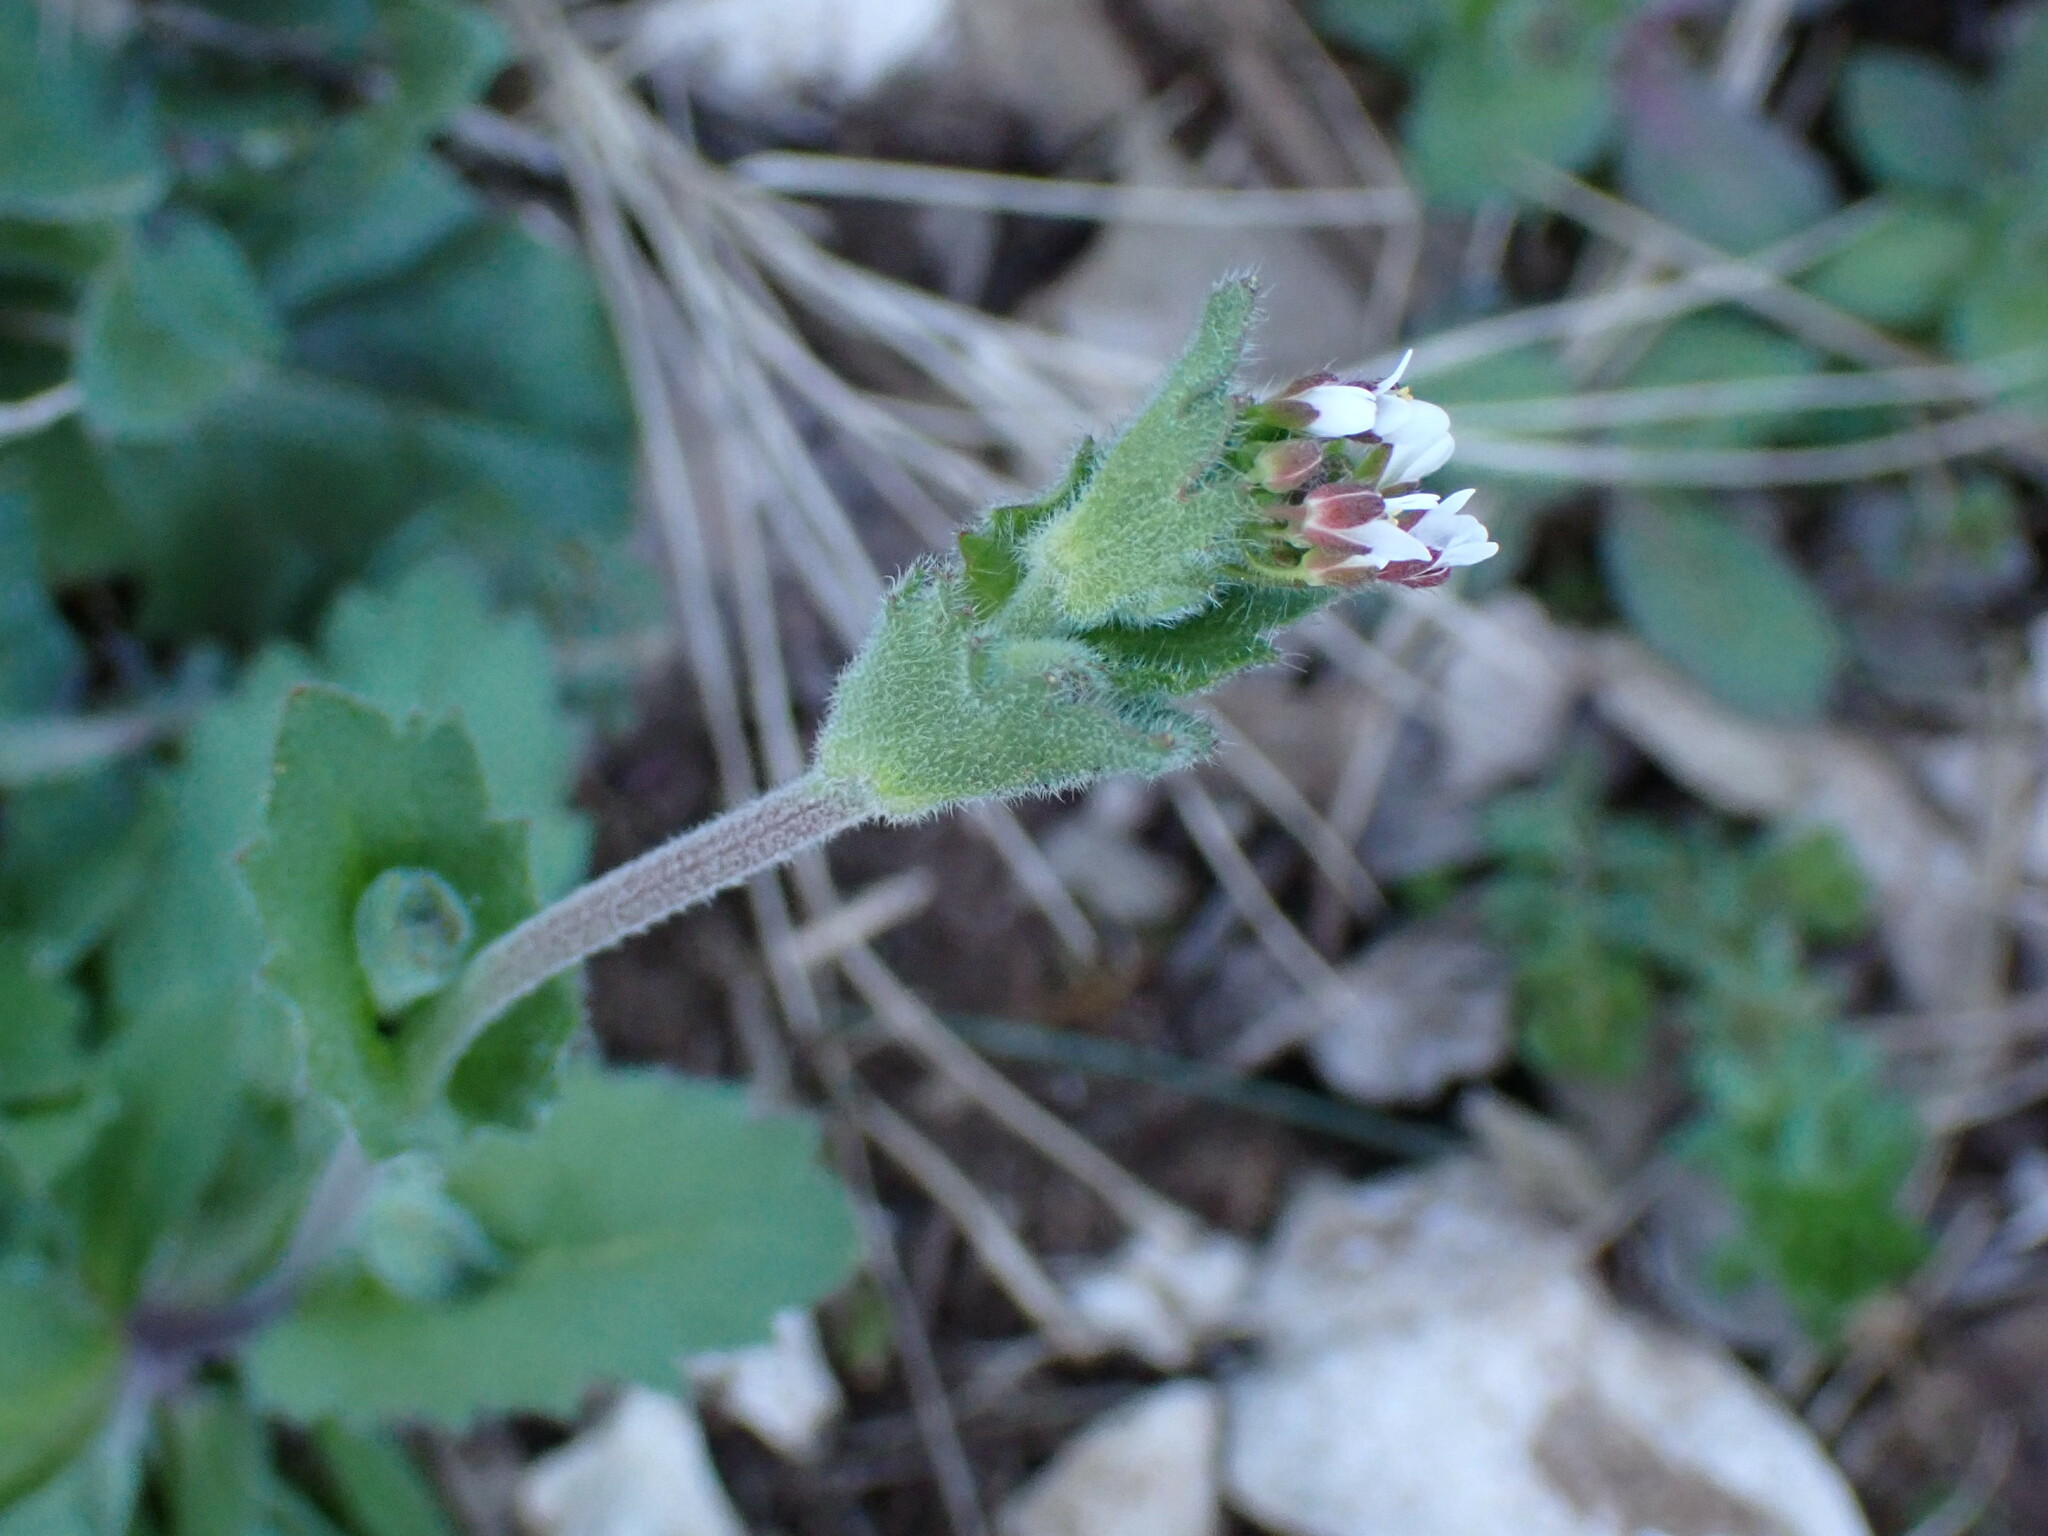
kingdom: Plantae
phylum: Tracheophyta
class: Magnoliopsida
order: Brassicales
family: Brassicaceae
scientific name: Brassicaceae
